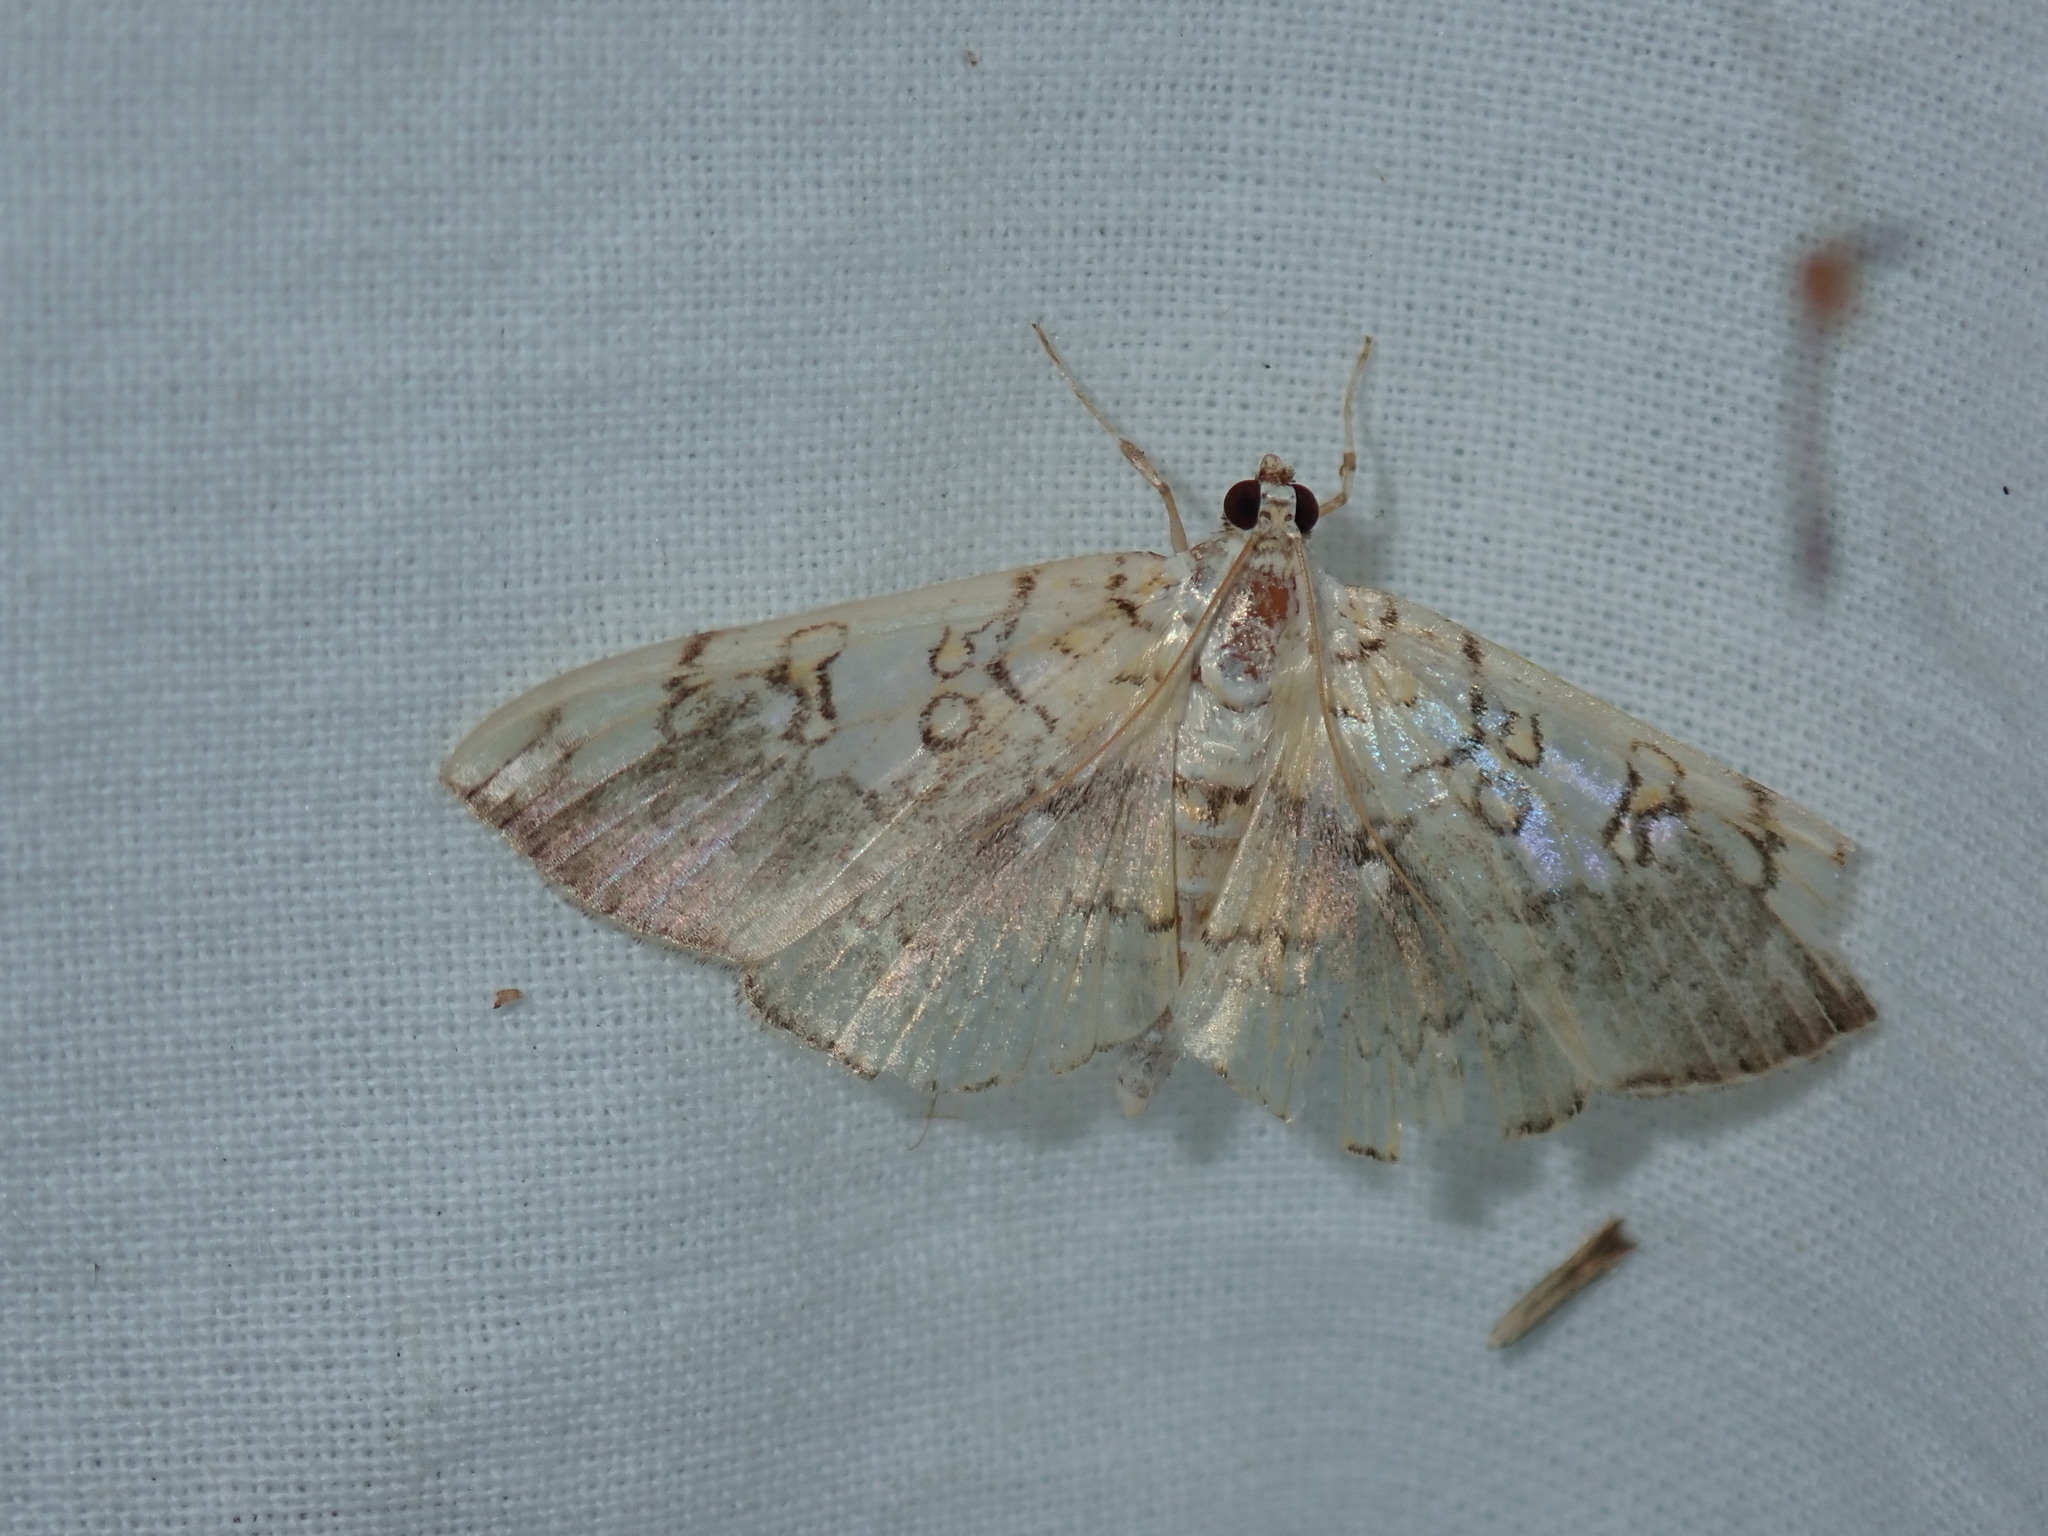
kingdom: Animalia
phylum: Arthropoda
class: Insecta
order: Lepidoptera
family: Crambidae
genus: Pantographa
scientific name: Pantographa limata
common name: Basswood leafroller moth
